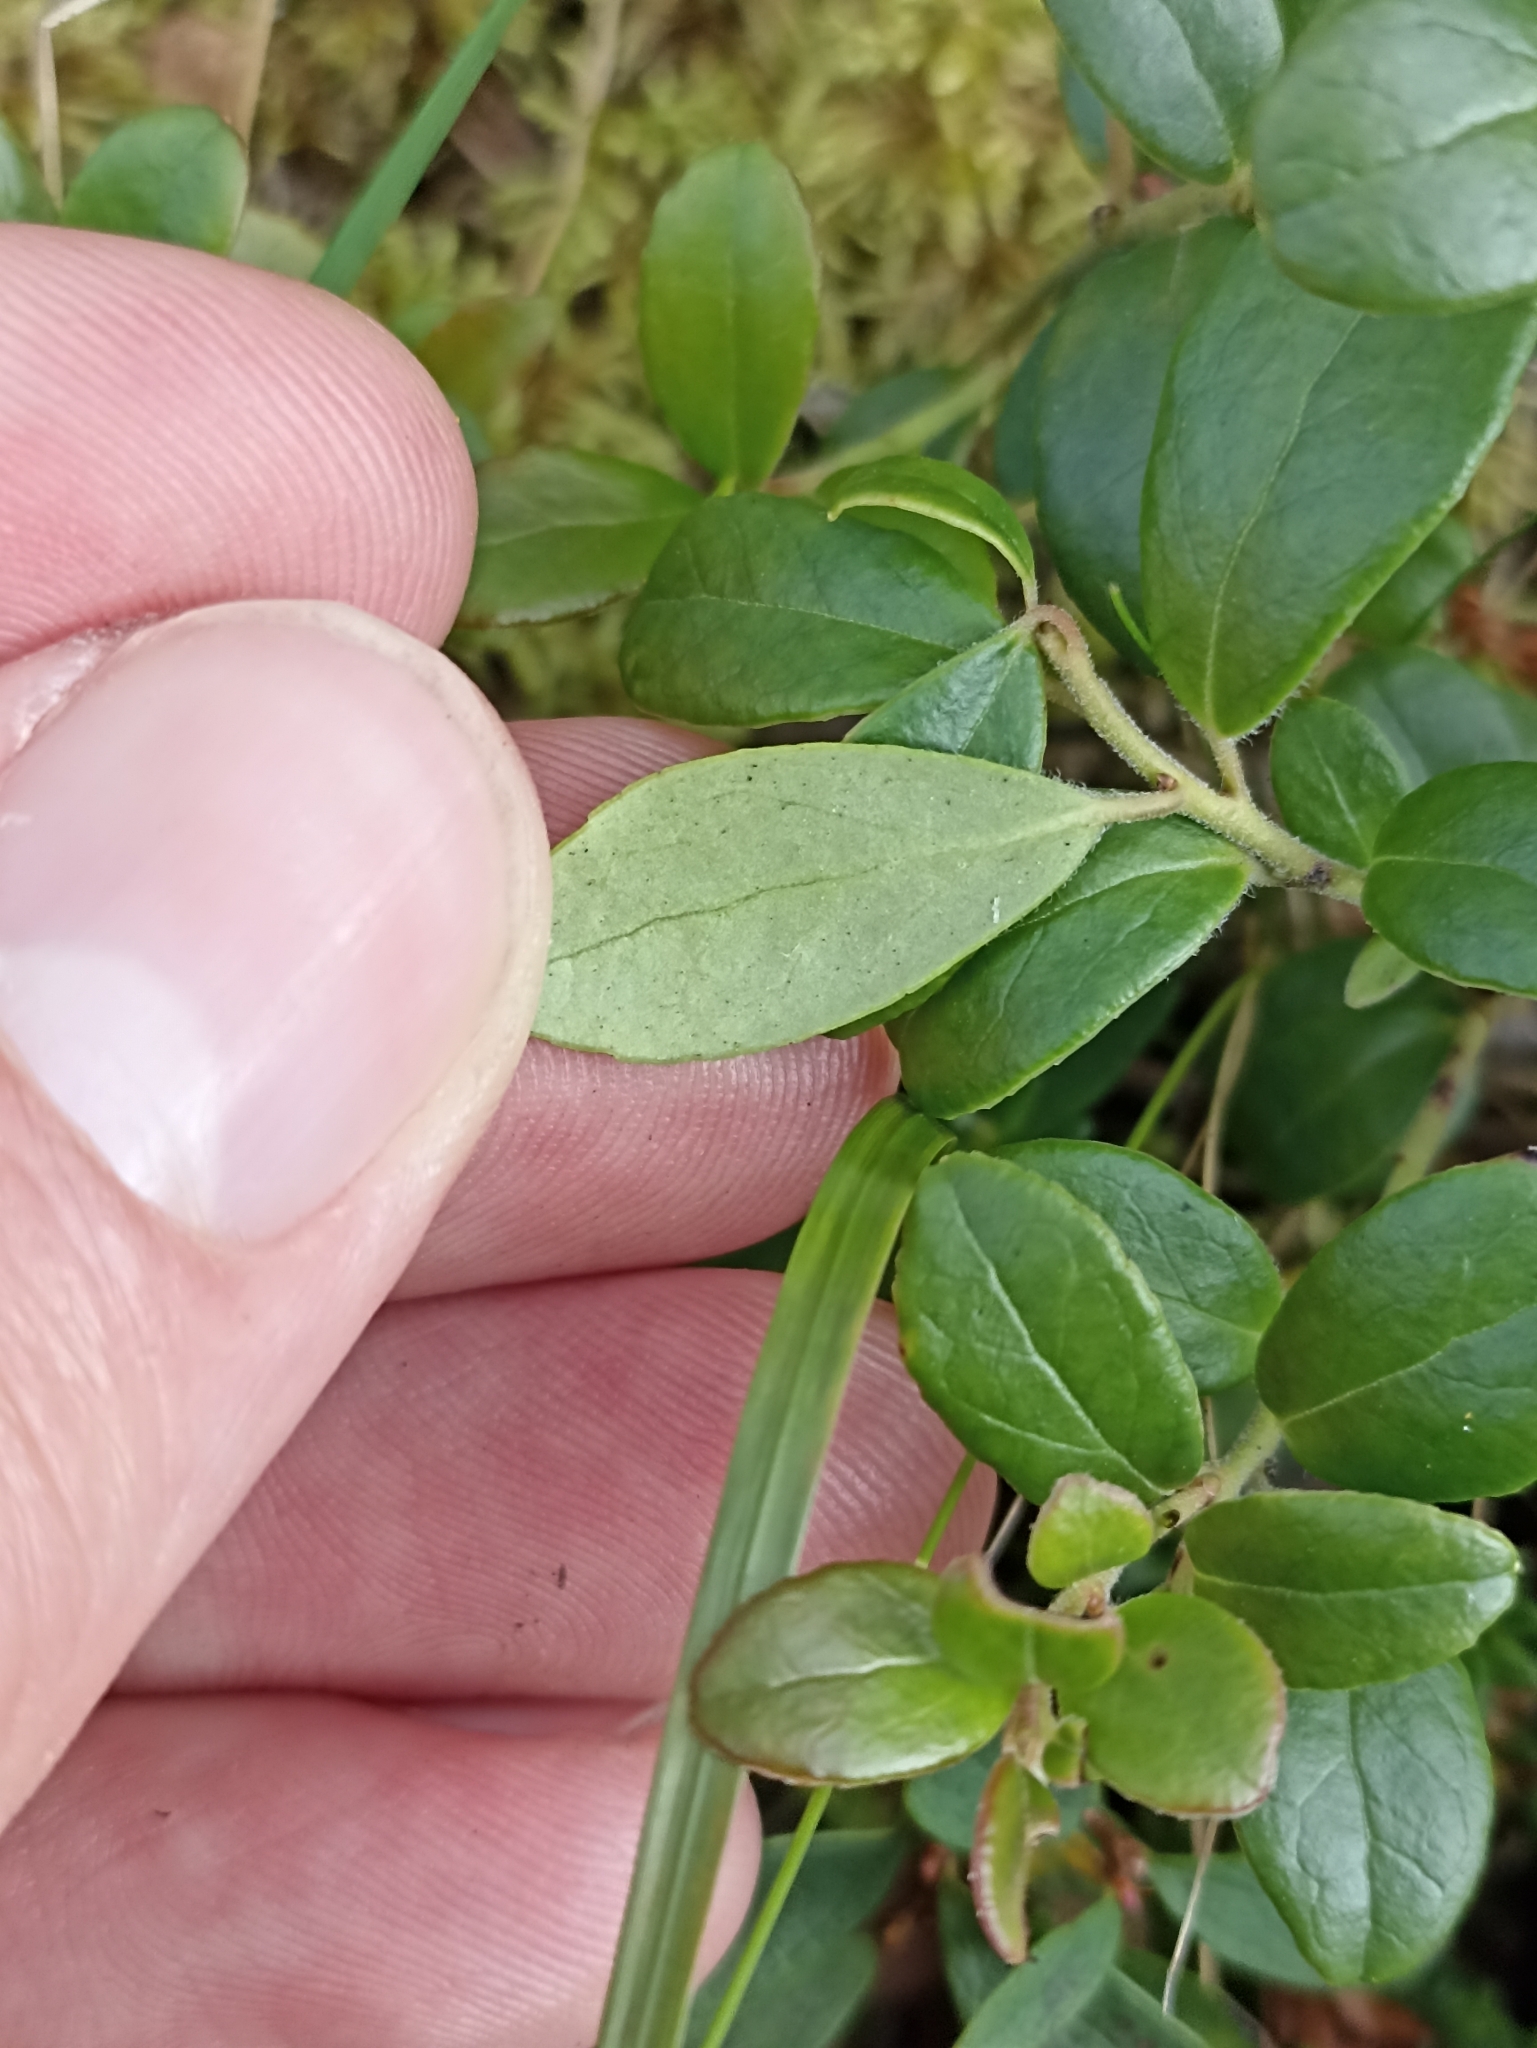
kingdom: Plantae
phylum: Tracheophyta
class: Magnoliopsida
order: Ericales
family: Ericaceae
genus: Vaccinium
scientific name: Vaccinium vitis-idaea
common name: Cowberry
